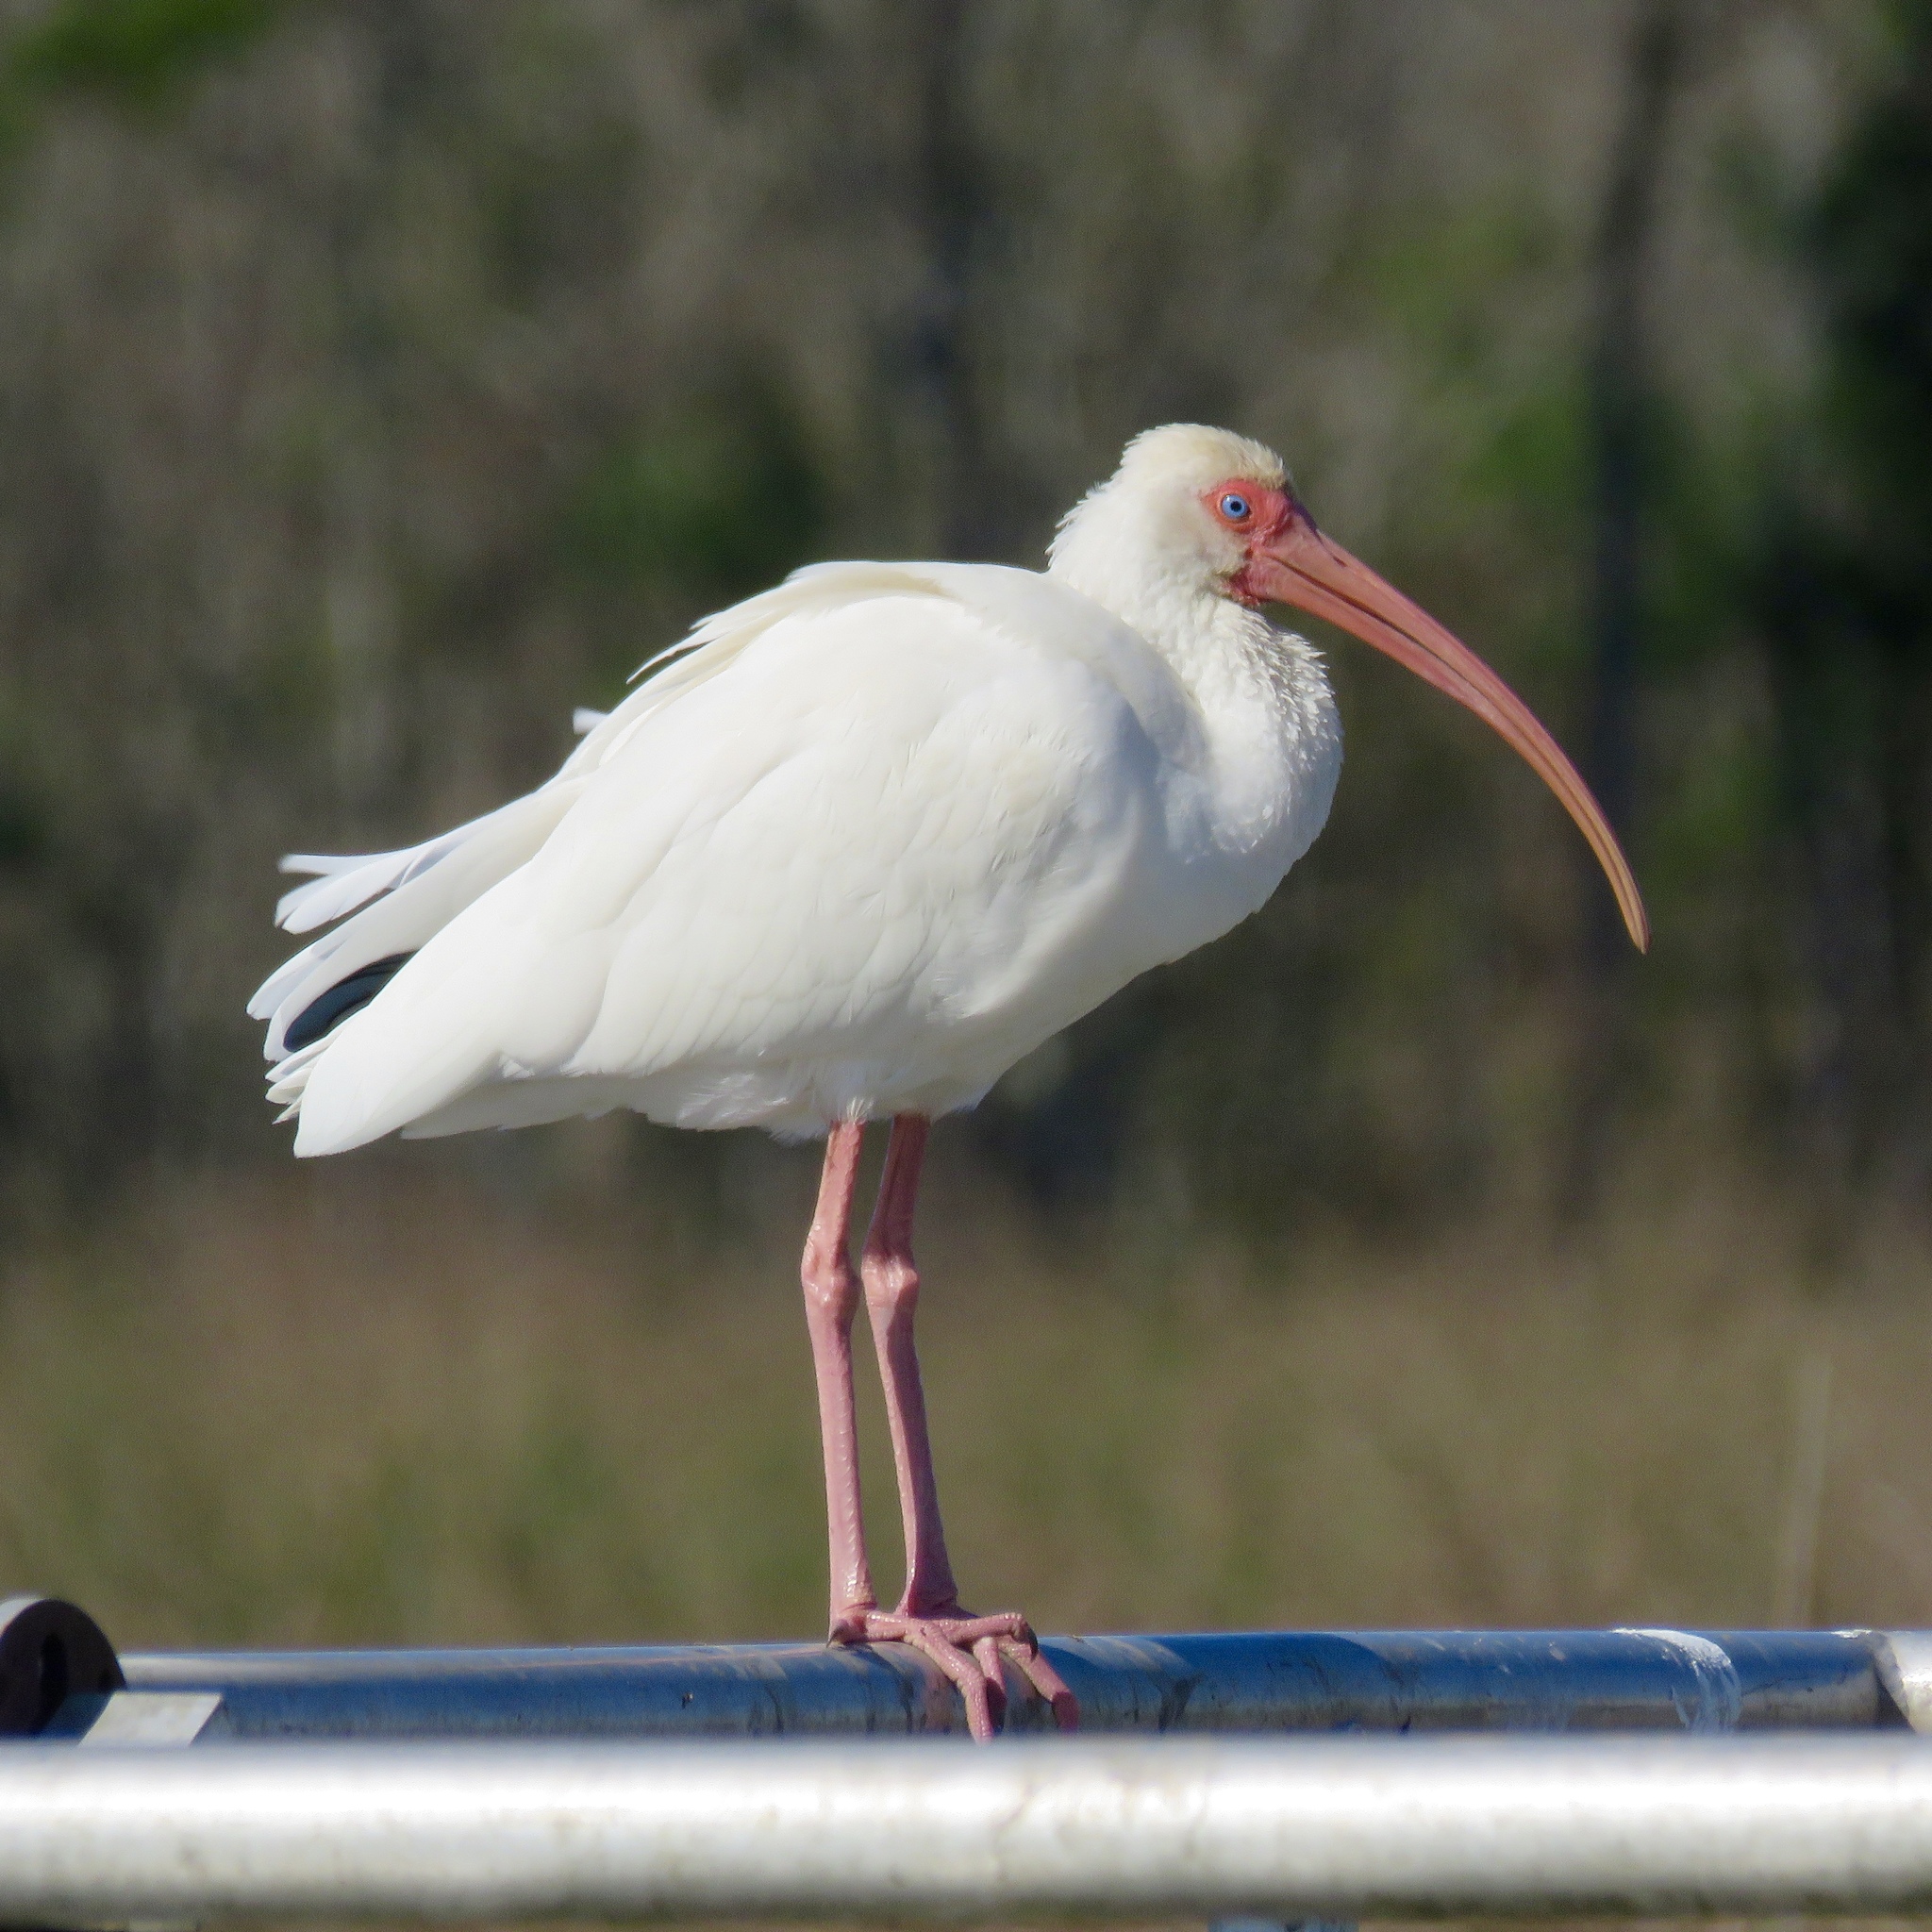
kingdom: Animalia
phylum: Chordata
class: Aves
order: Pelecaniformes
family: Threskiornithidae
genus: Eudocimus
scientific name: Eudocimus albus
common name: White ibis
